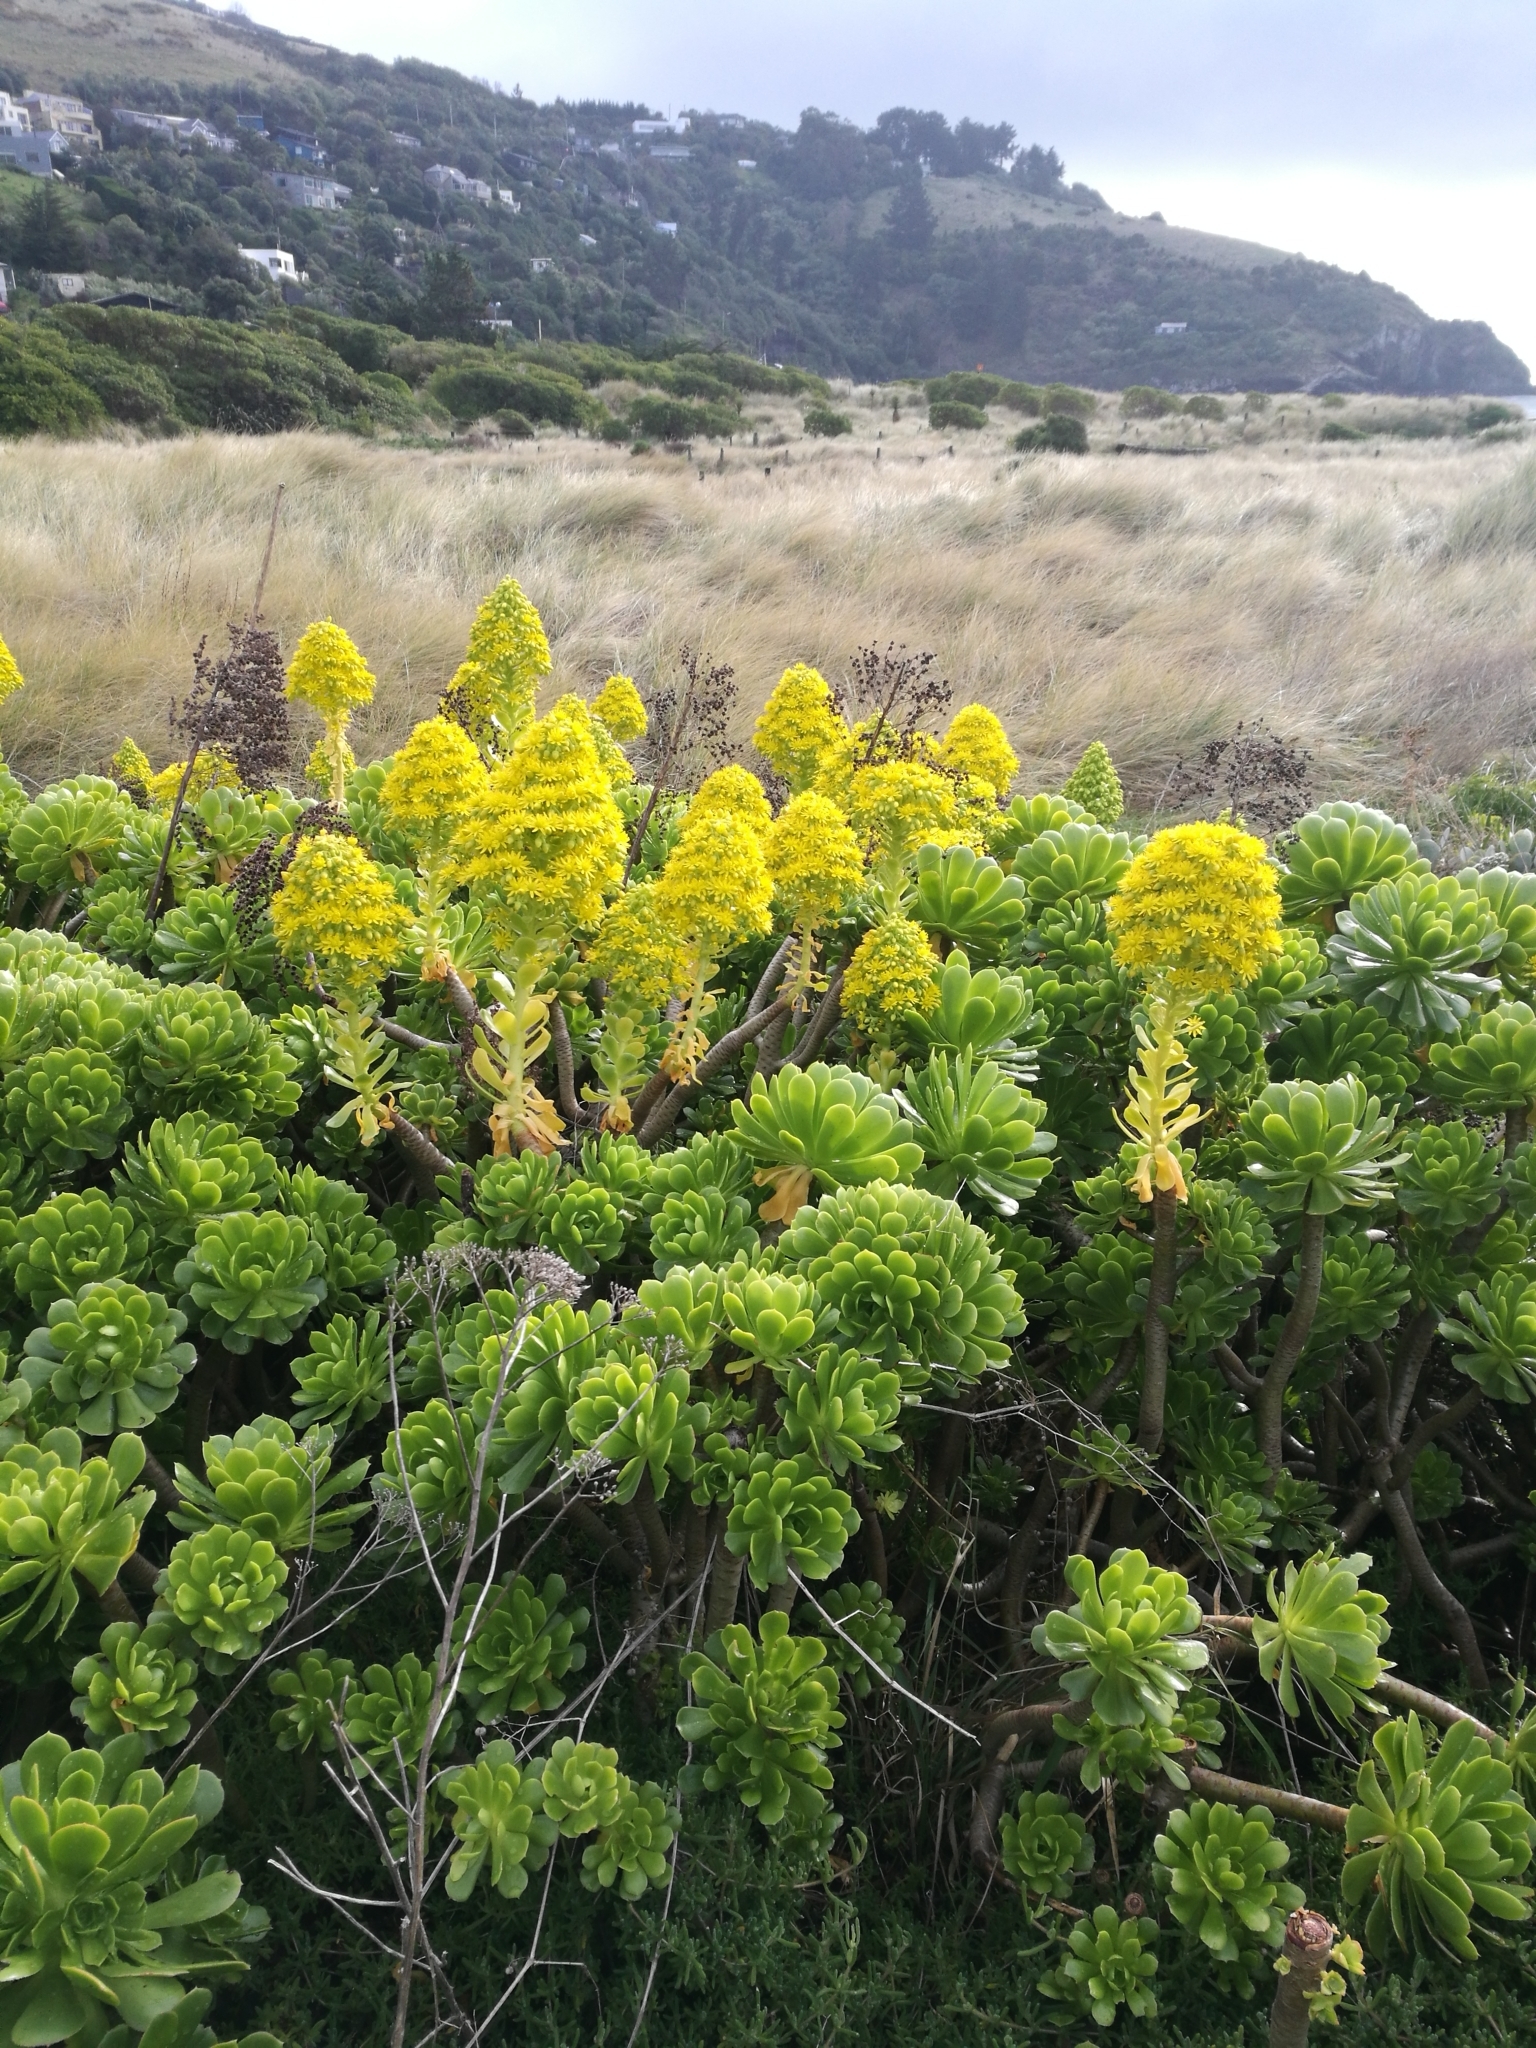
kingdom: Plantae
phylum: Tracheophyta
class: Magnoliopsida
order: Saxifragales
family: Crassulaceae
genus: Aeonium
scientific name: Aeonium arboreum
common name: Tree aeonium
